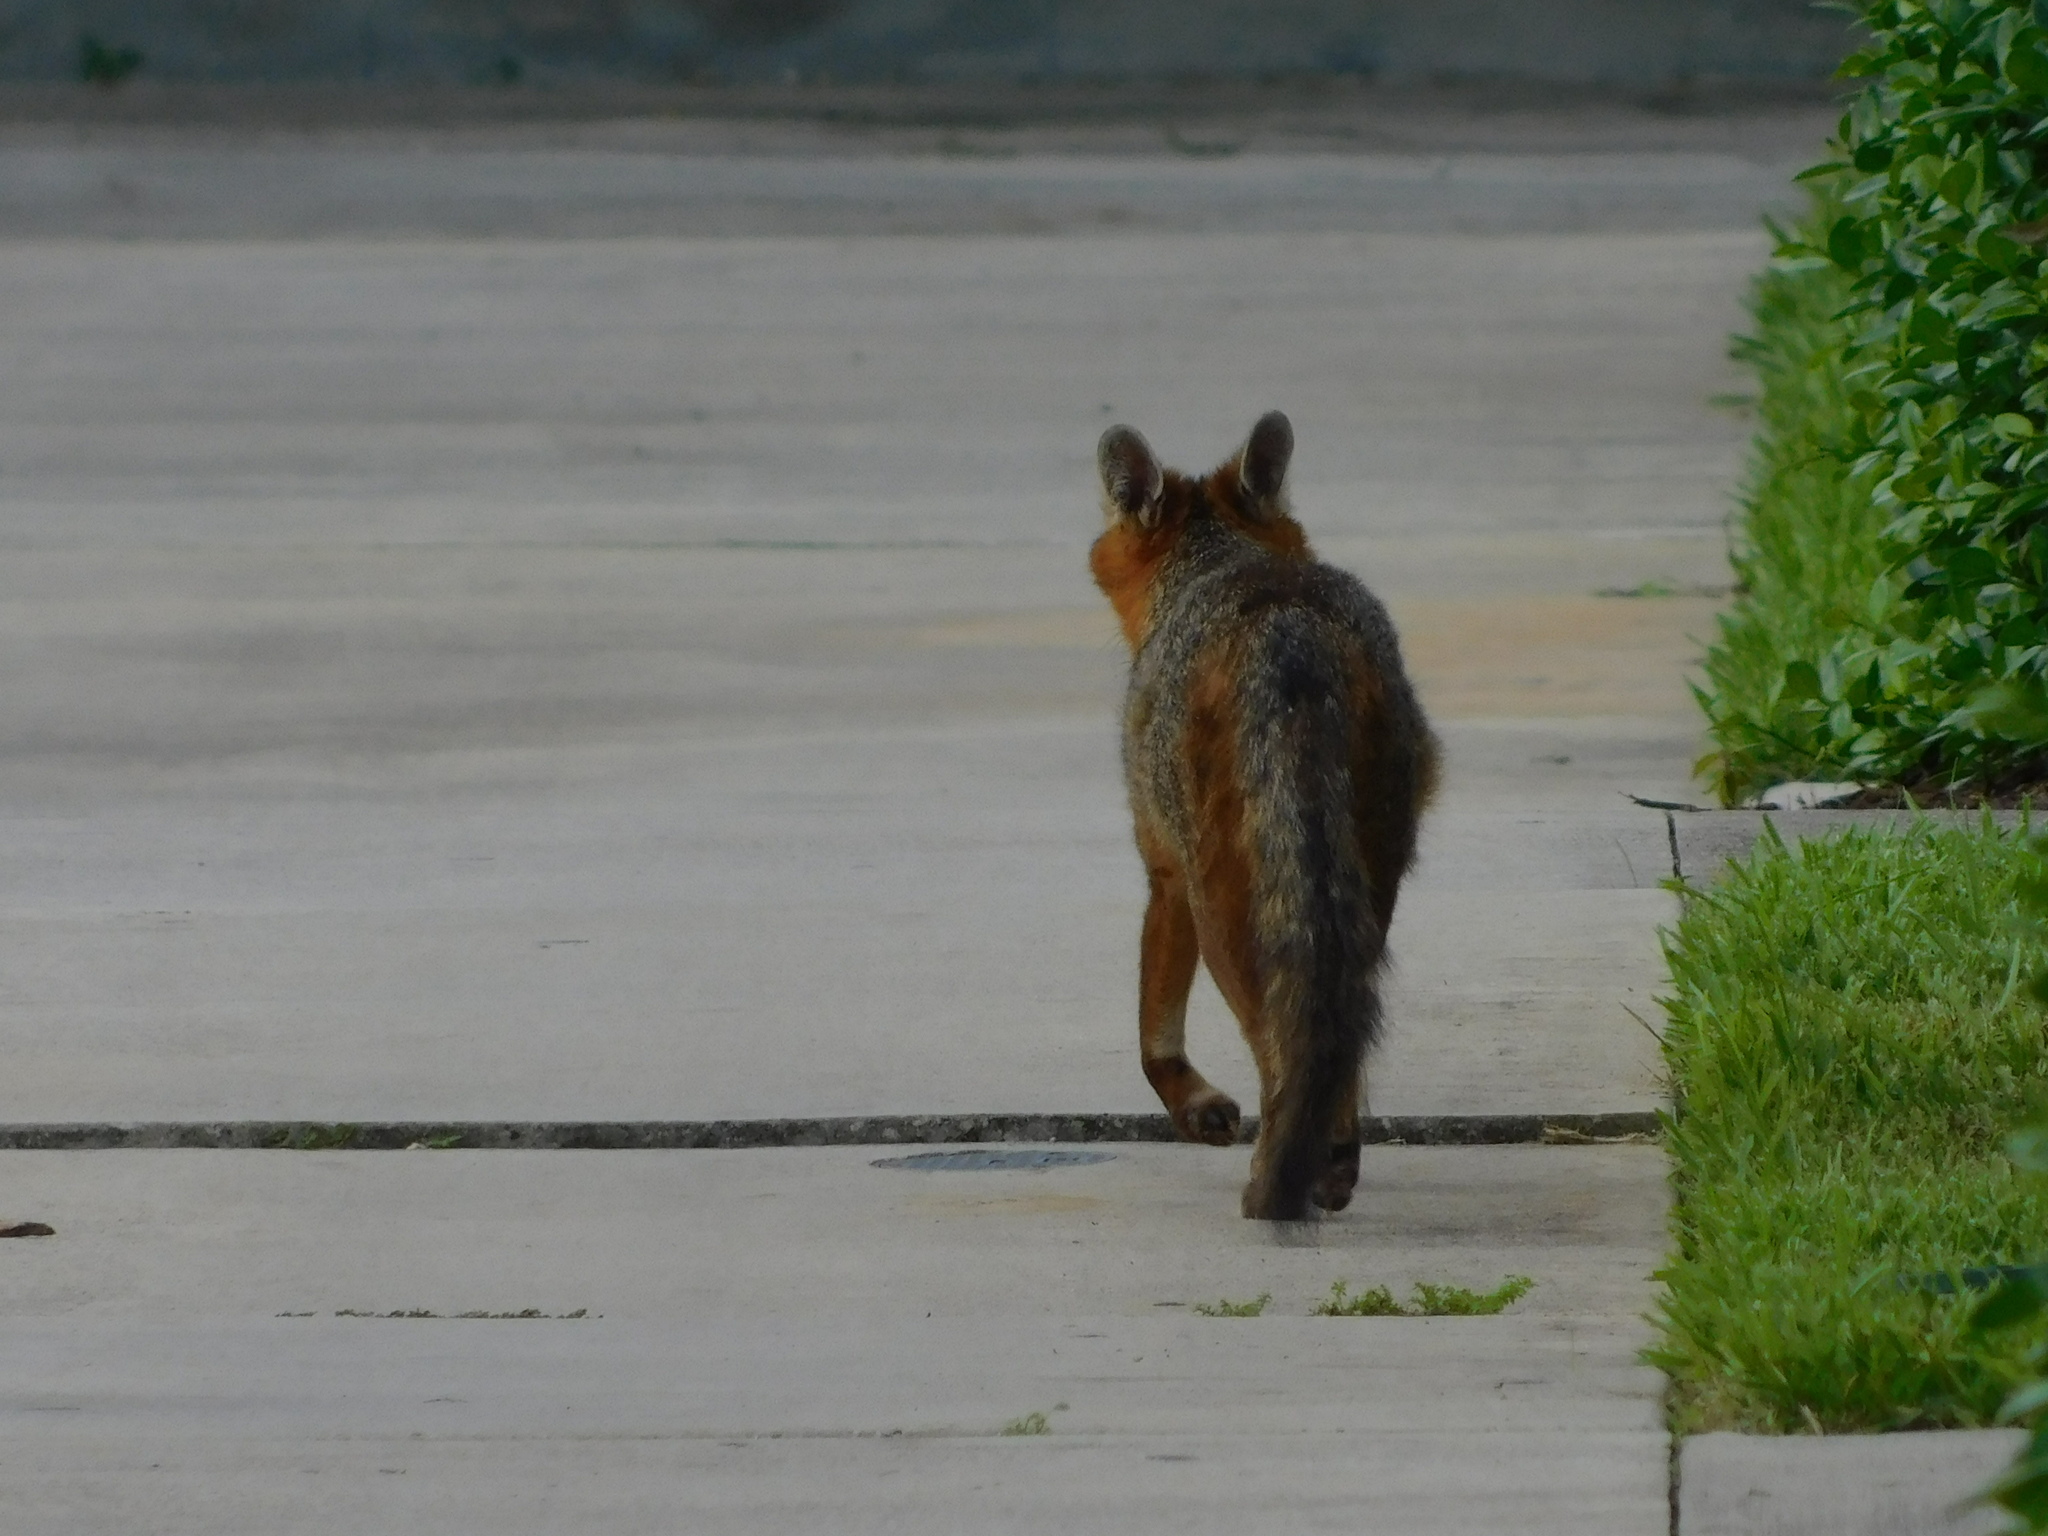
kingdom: Animalia
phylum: Chordata
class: Mammalia
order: Carnivora
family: Canidae
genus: Urocyon
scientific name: Urocyon cinereoargenteus
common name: Gray fox
